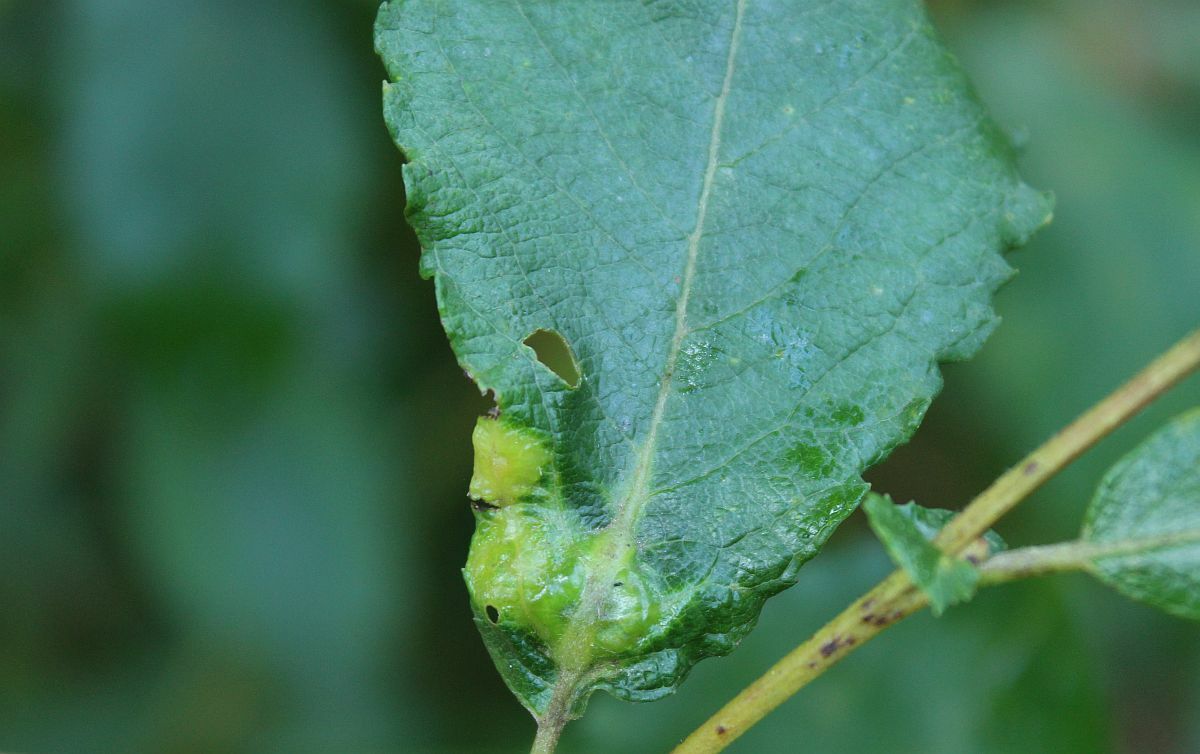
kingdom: Animalia
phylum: Arthropoda
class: Insecta
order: Diptera
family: Cecidomyiidae
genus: Iteomyia
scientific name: Iteomyia major
